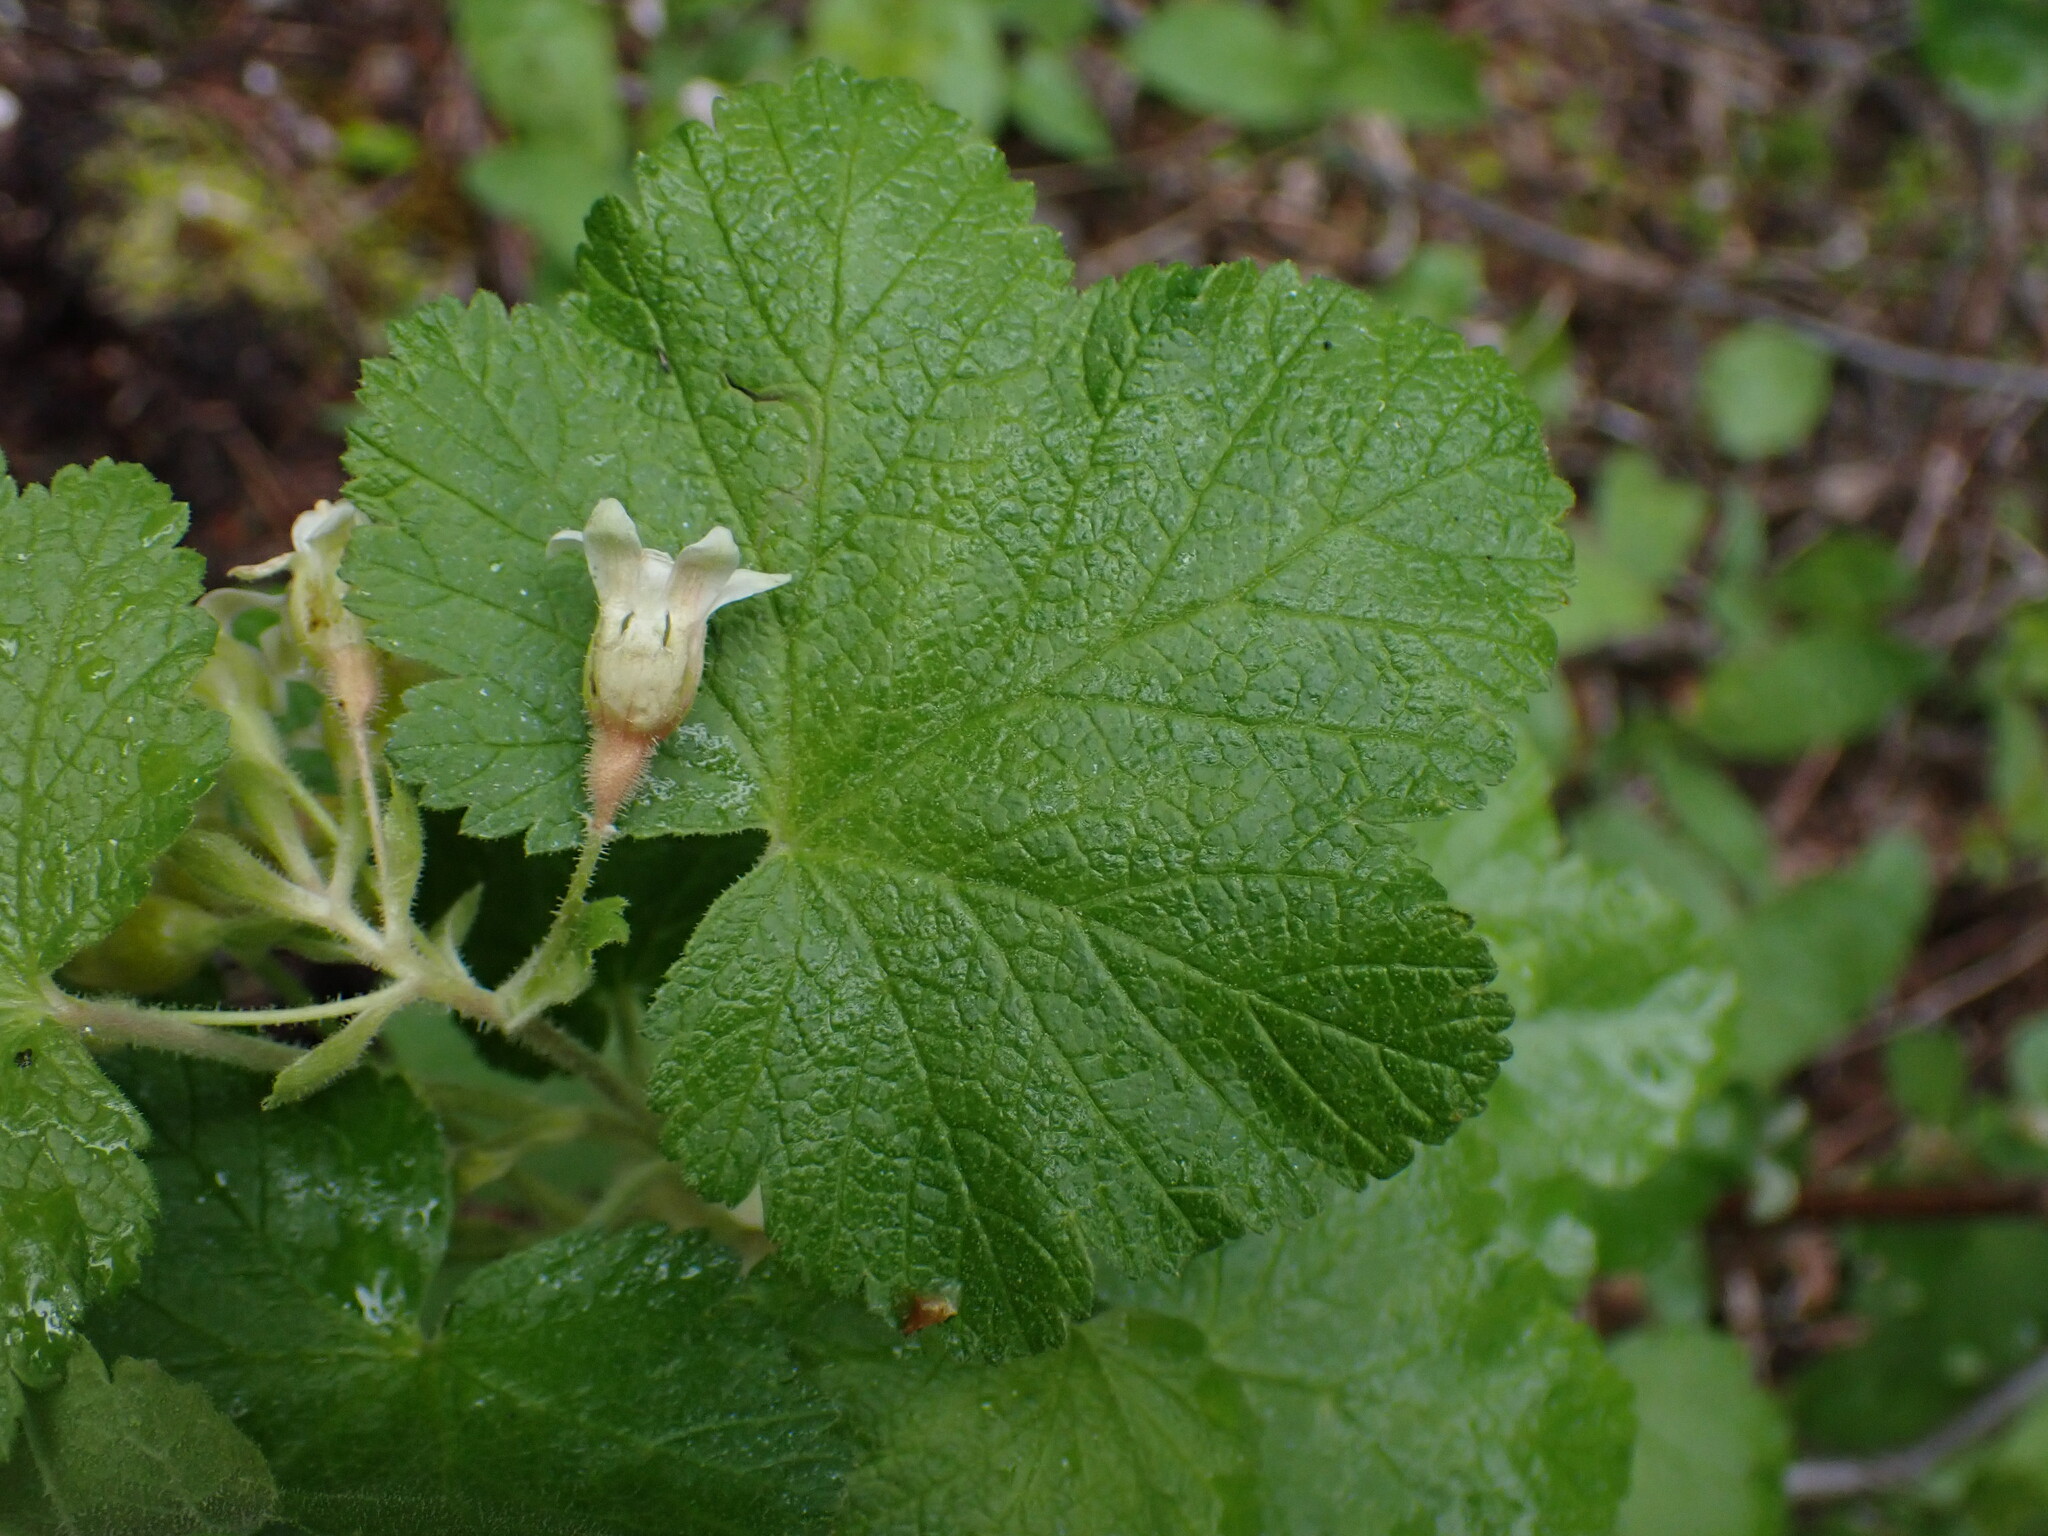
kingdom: Plantae
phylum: Tracheophyta
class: Magnoliopsida
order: Saxifragales
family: Grossulariaceae
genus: Ribes
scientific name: Ribes viscosissimum
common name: Sticky currant
